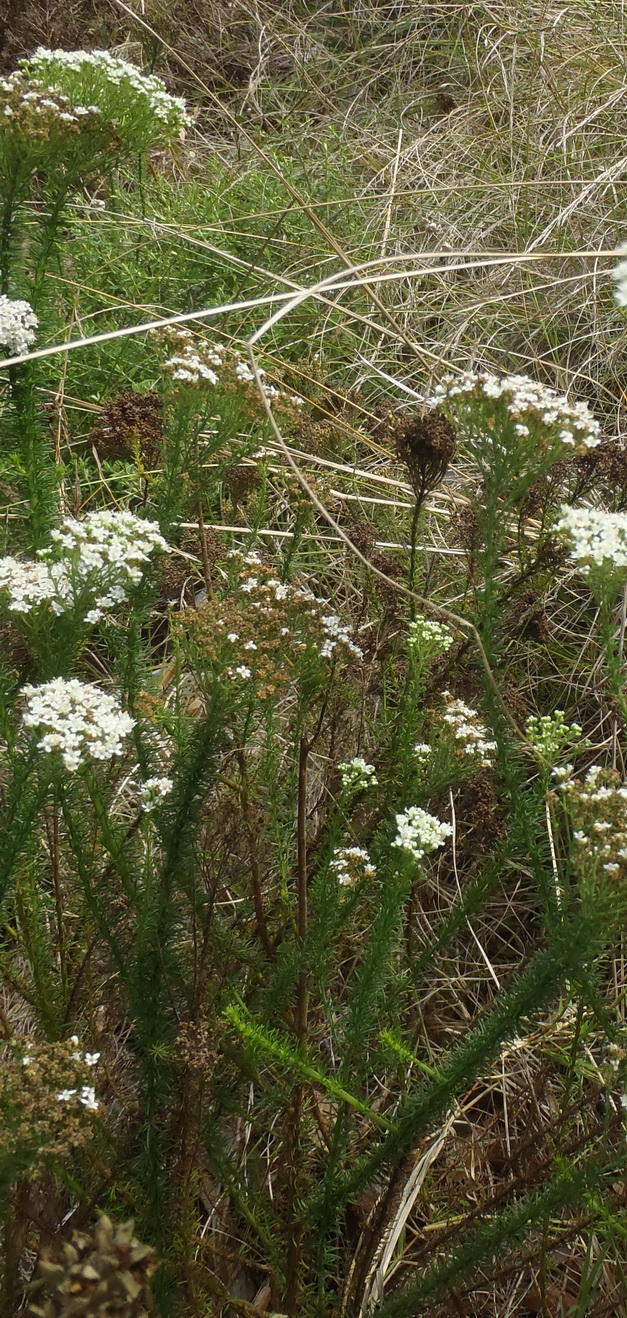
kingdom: Plantae
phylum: Tracheophyta
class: Magnoliopsida
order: Lamiales
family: Scrophulariaceae
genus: Selago
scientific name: Selago corymbosa
